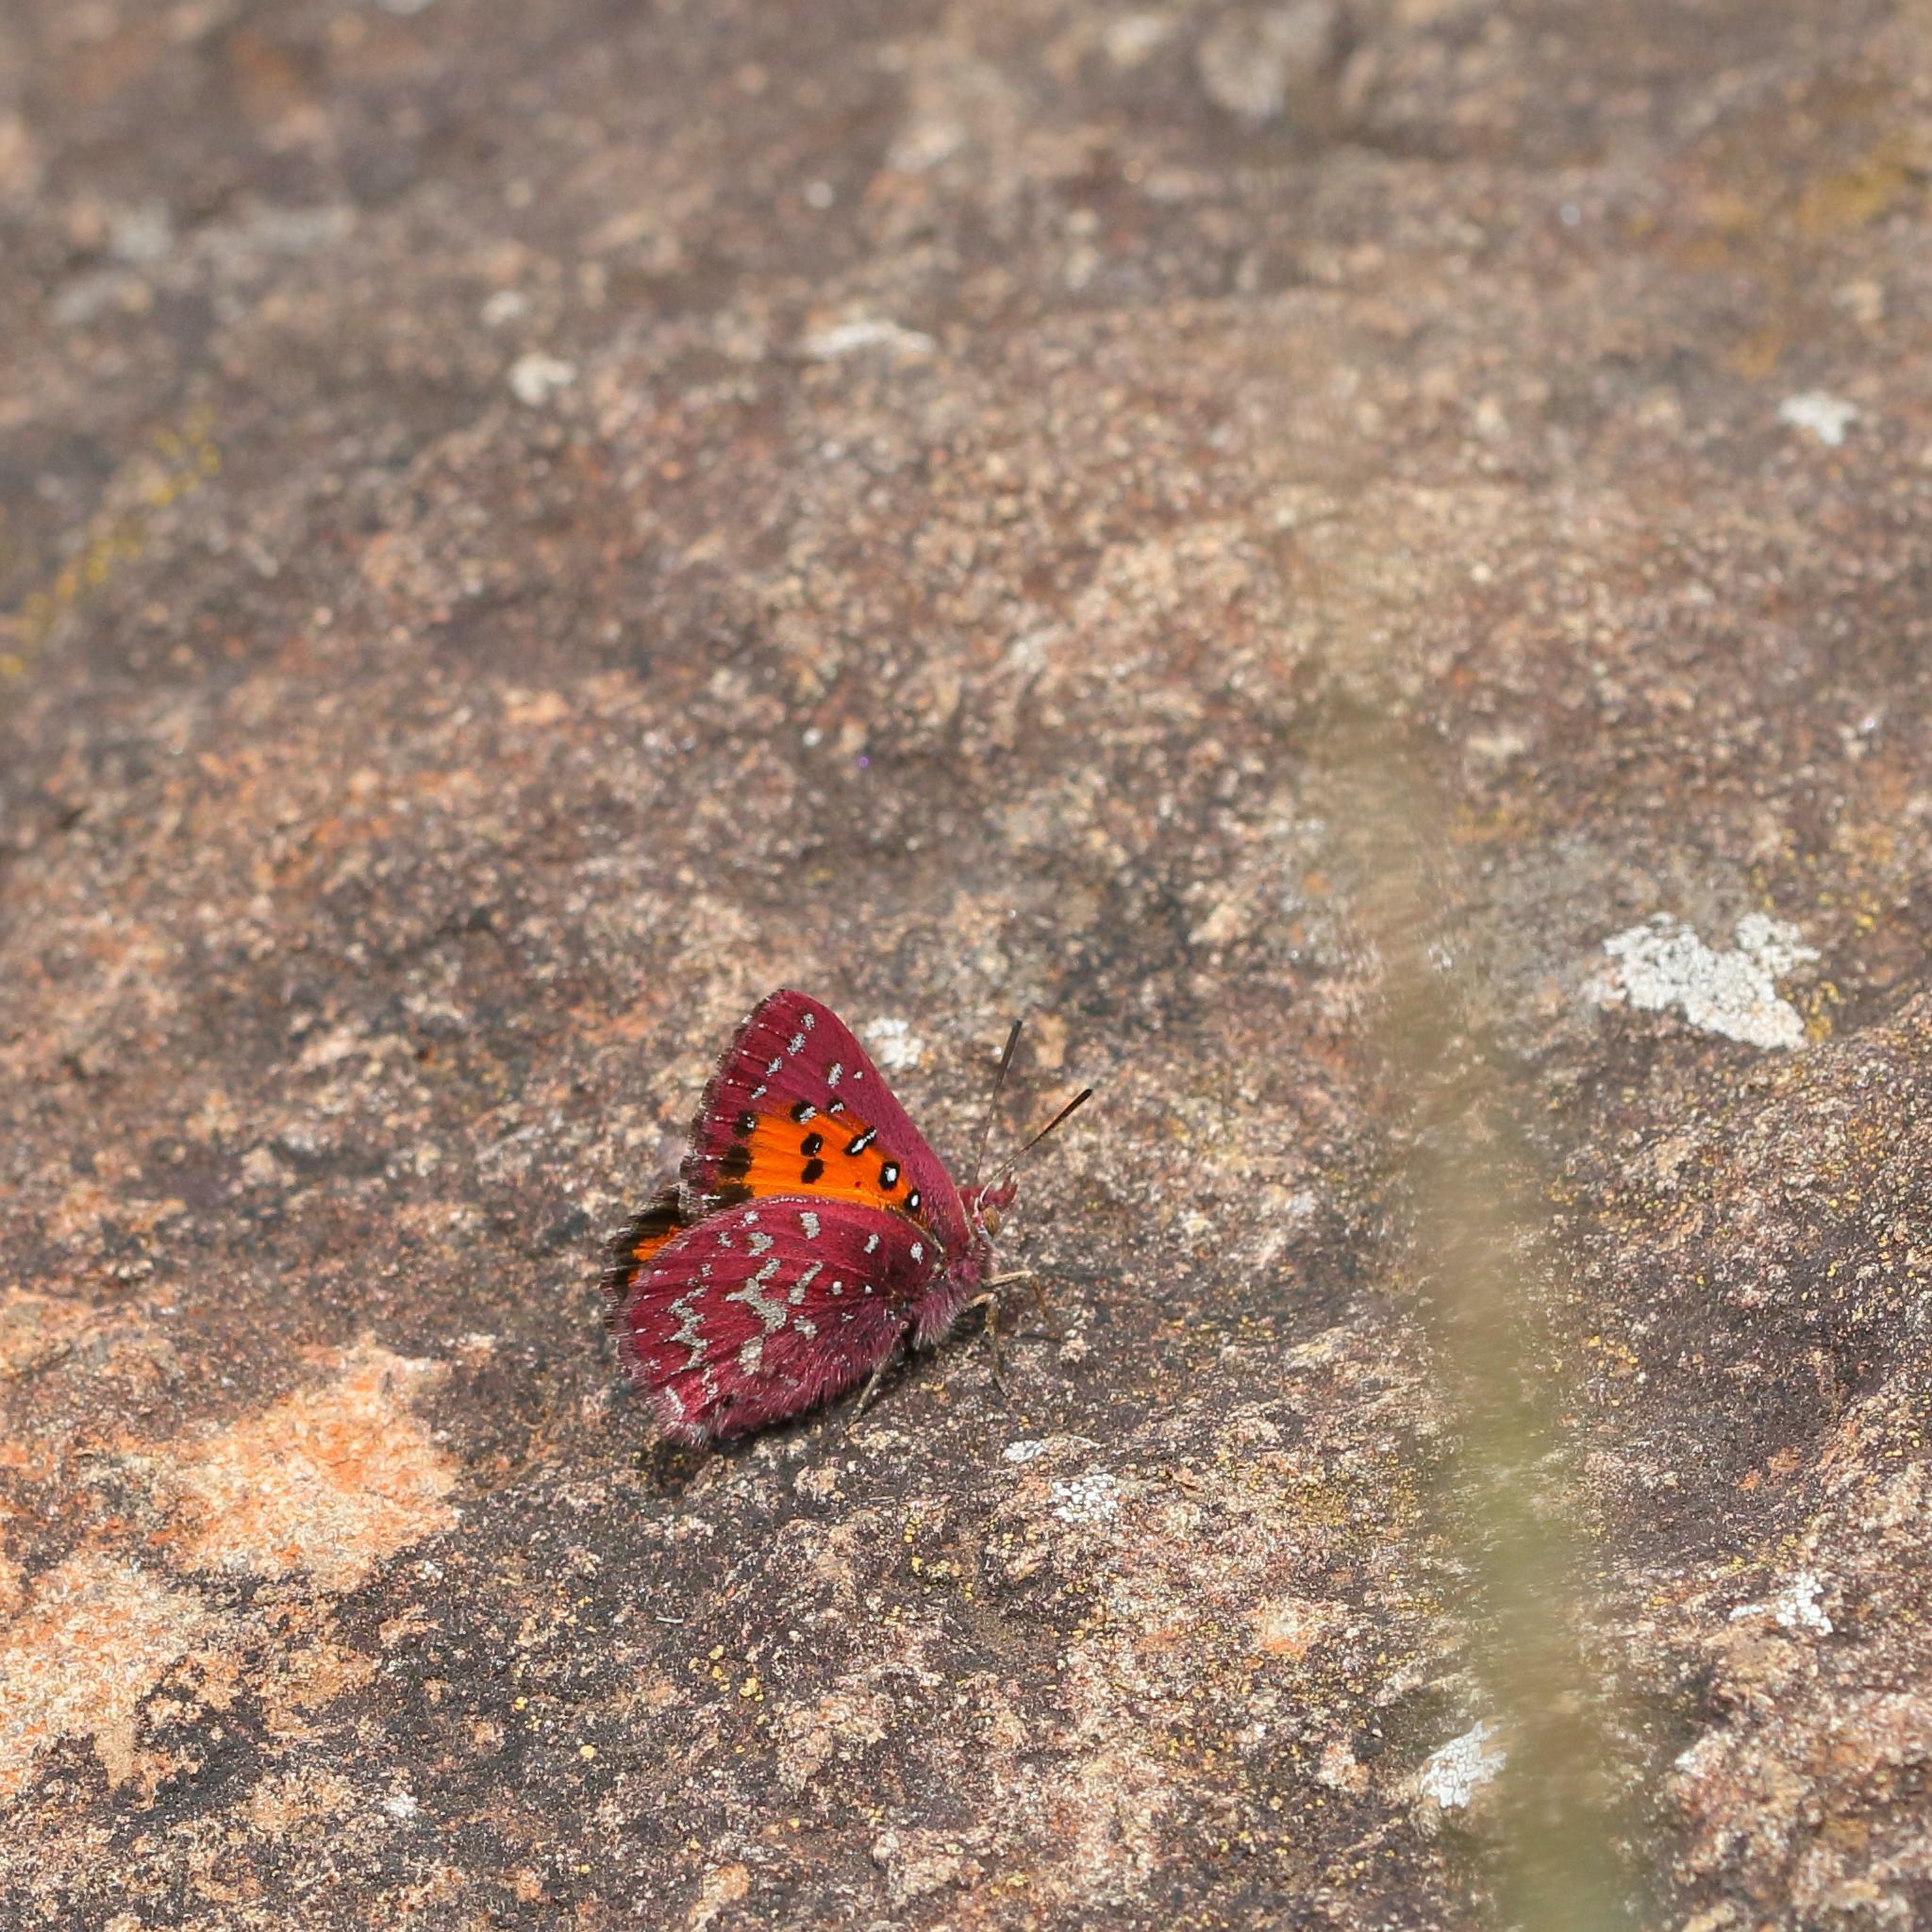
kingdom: Animalia
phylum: Arthropoda
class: Insecta
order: Lepidoptera
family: Lycaenidae
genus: Aloeides
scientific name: Aloeides penningtoni
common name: Pennington's copper
